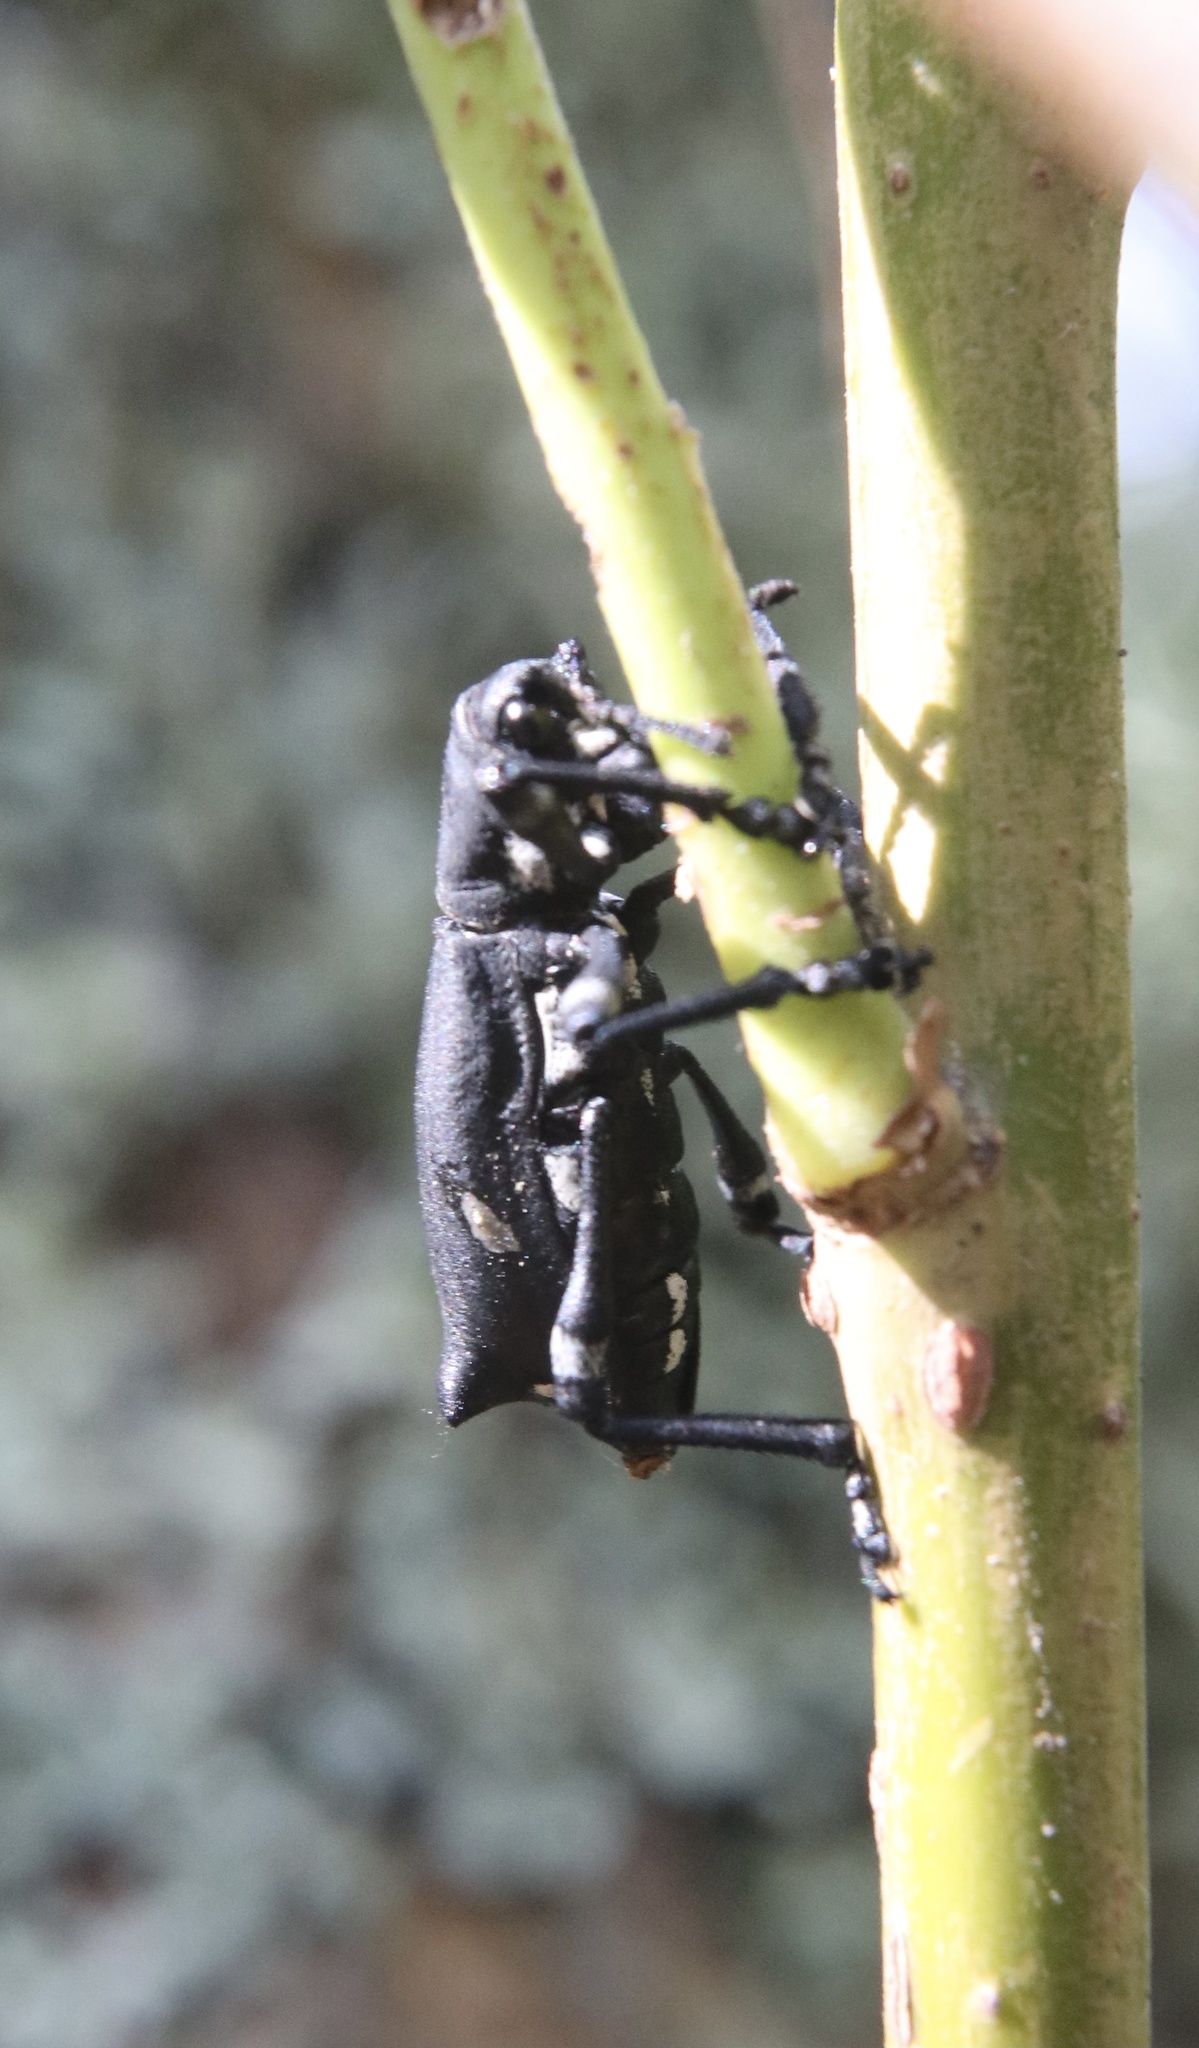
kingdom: Animalia
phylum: Arthropoda
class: Insecta
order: Coleoptera
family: Curculionidae
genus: Aegorhinus
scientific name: Aegorhinus
